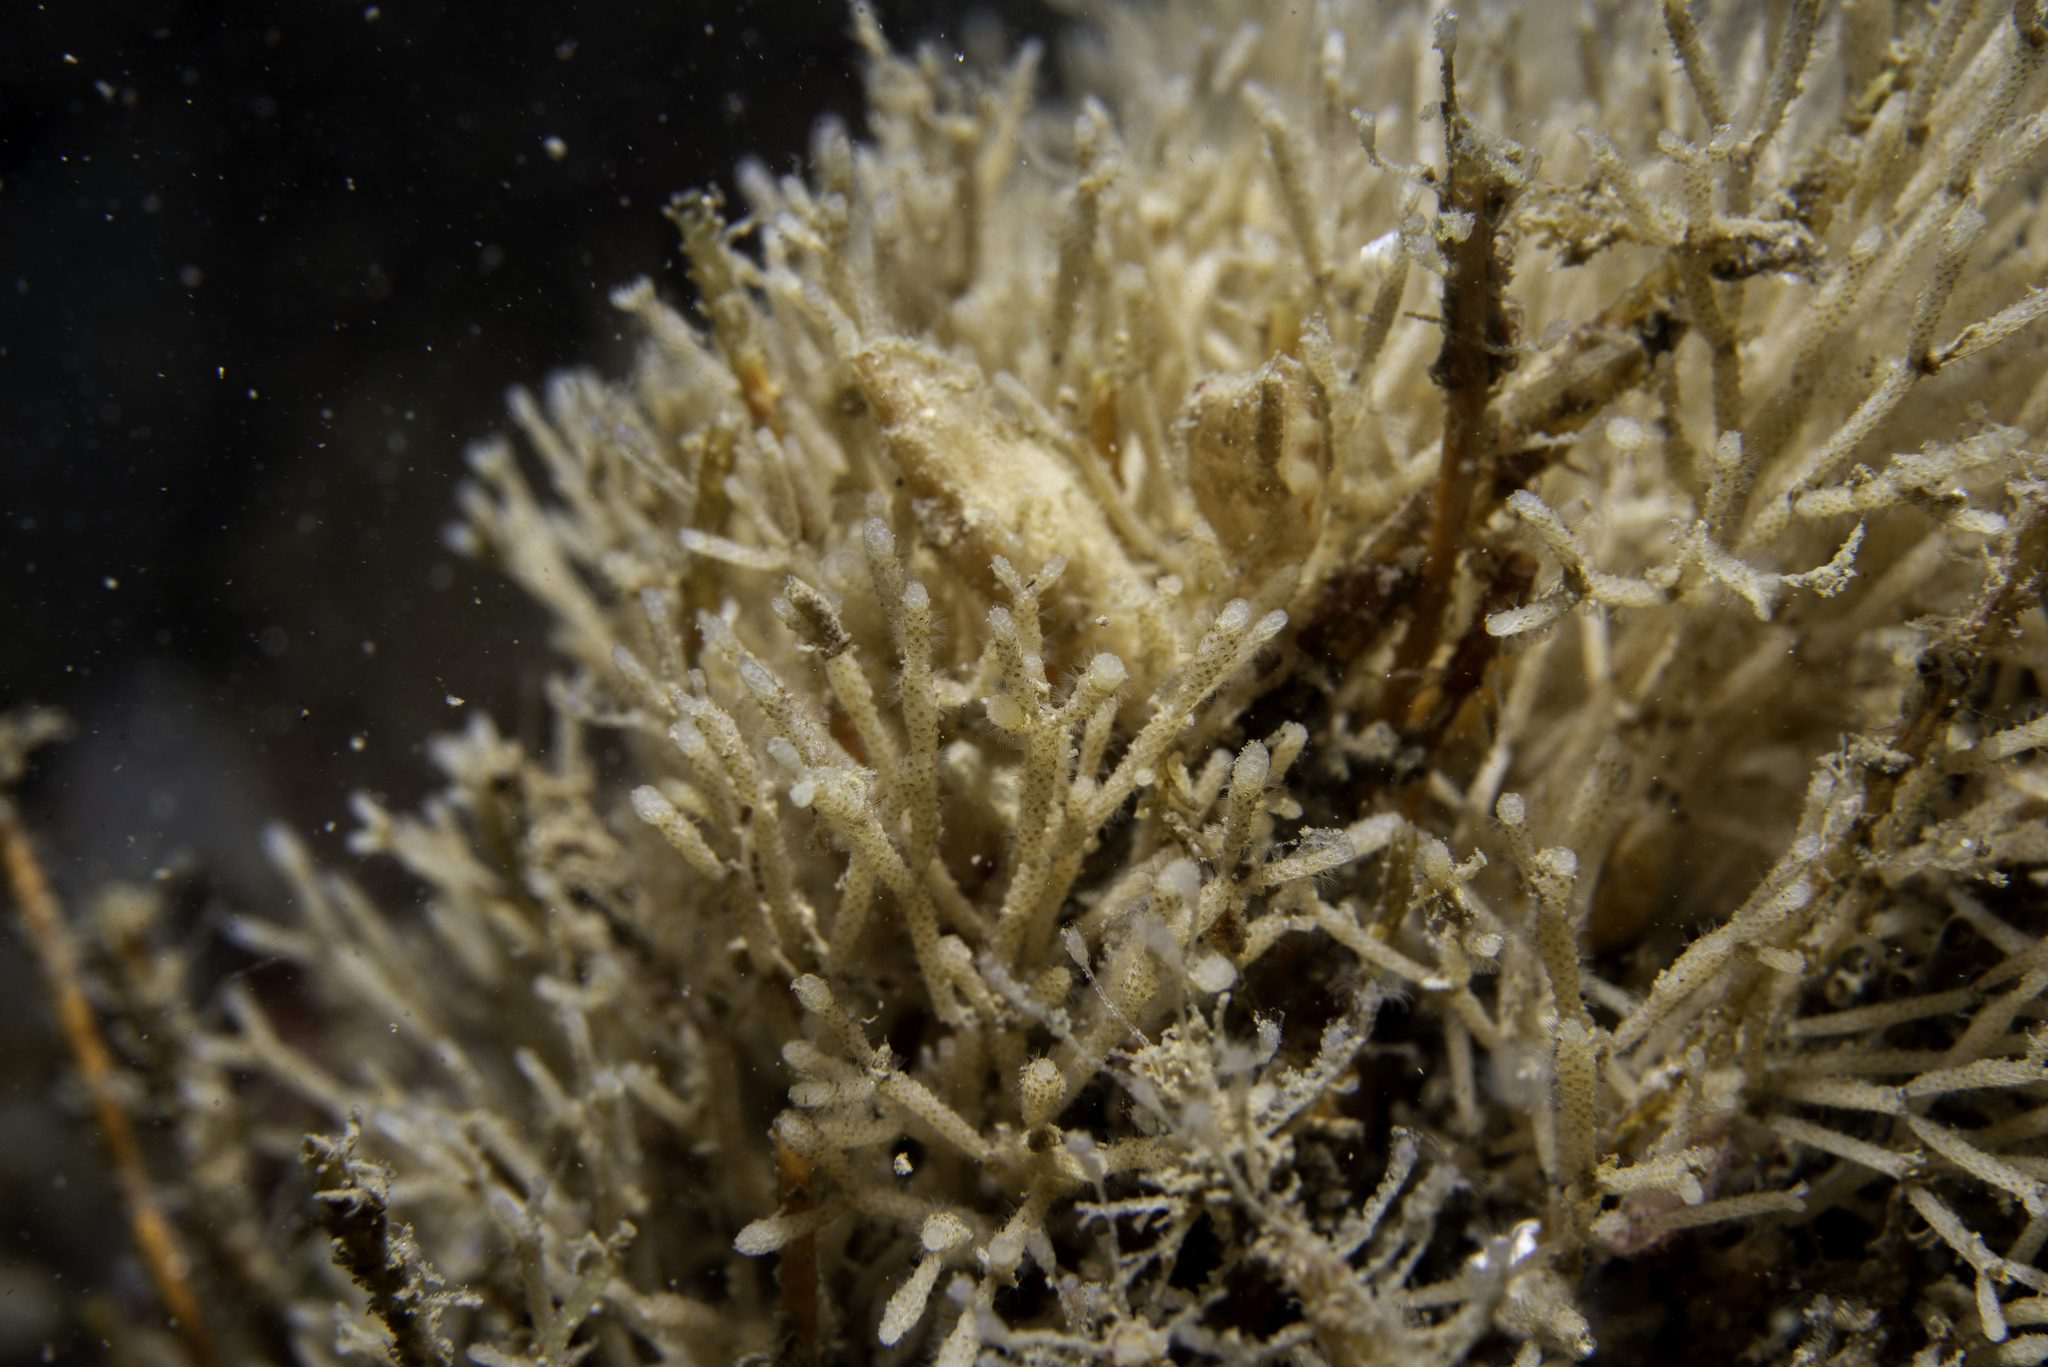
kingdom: Animalia
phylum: Bryozoa
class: Gymnolaemata
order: Cheilostomatida
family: Cellariidae
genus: Cellaria
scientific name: Cellaria fistulosa
